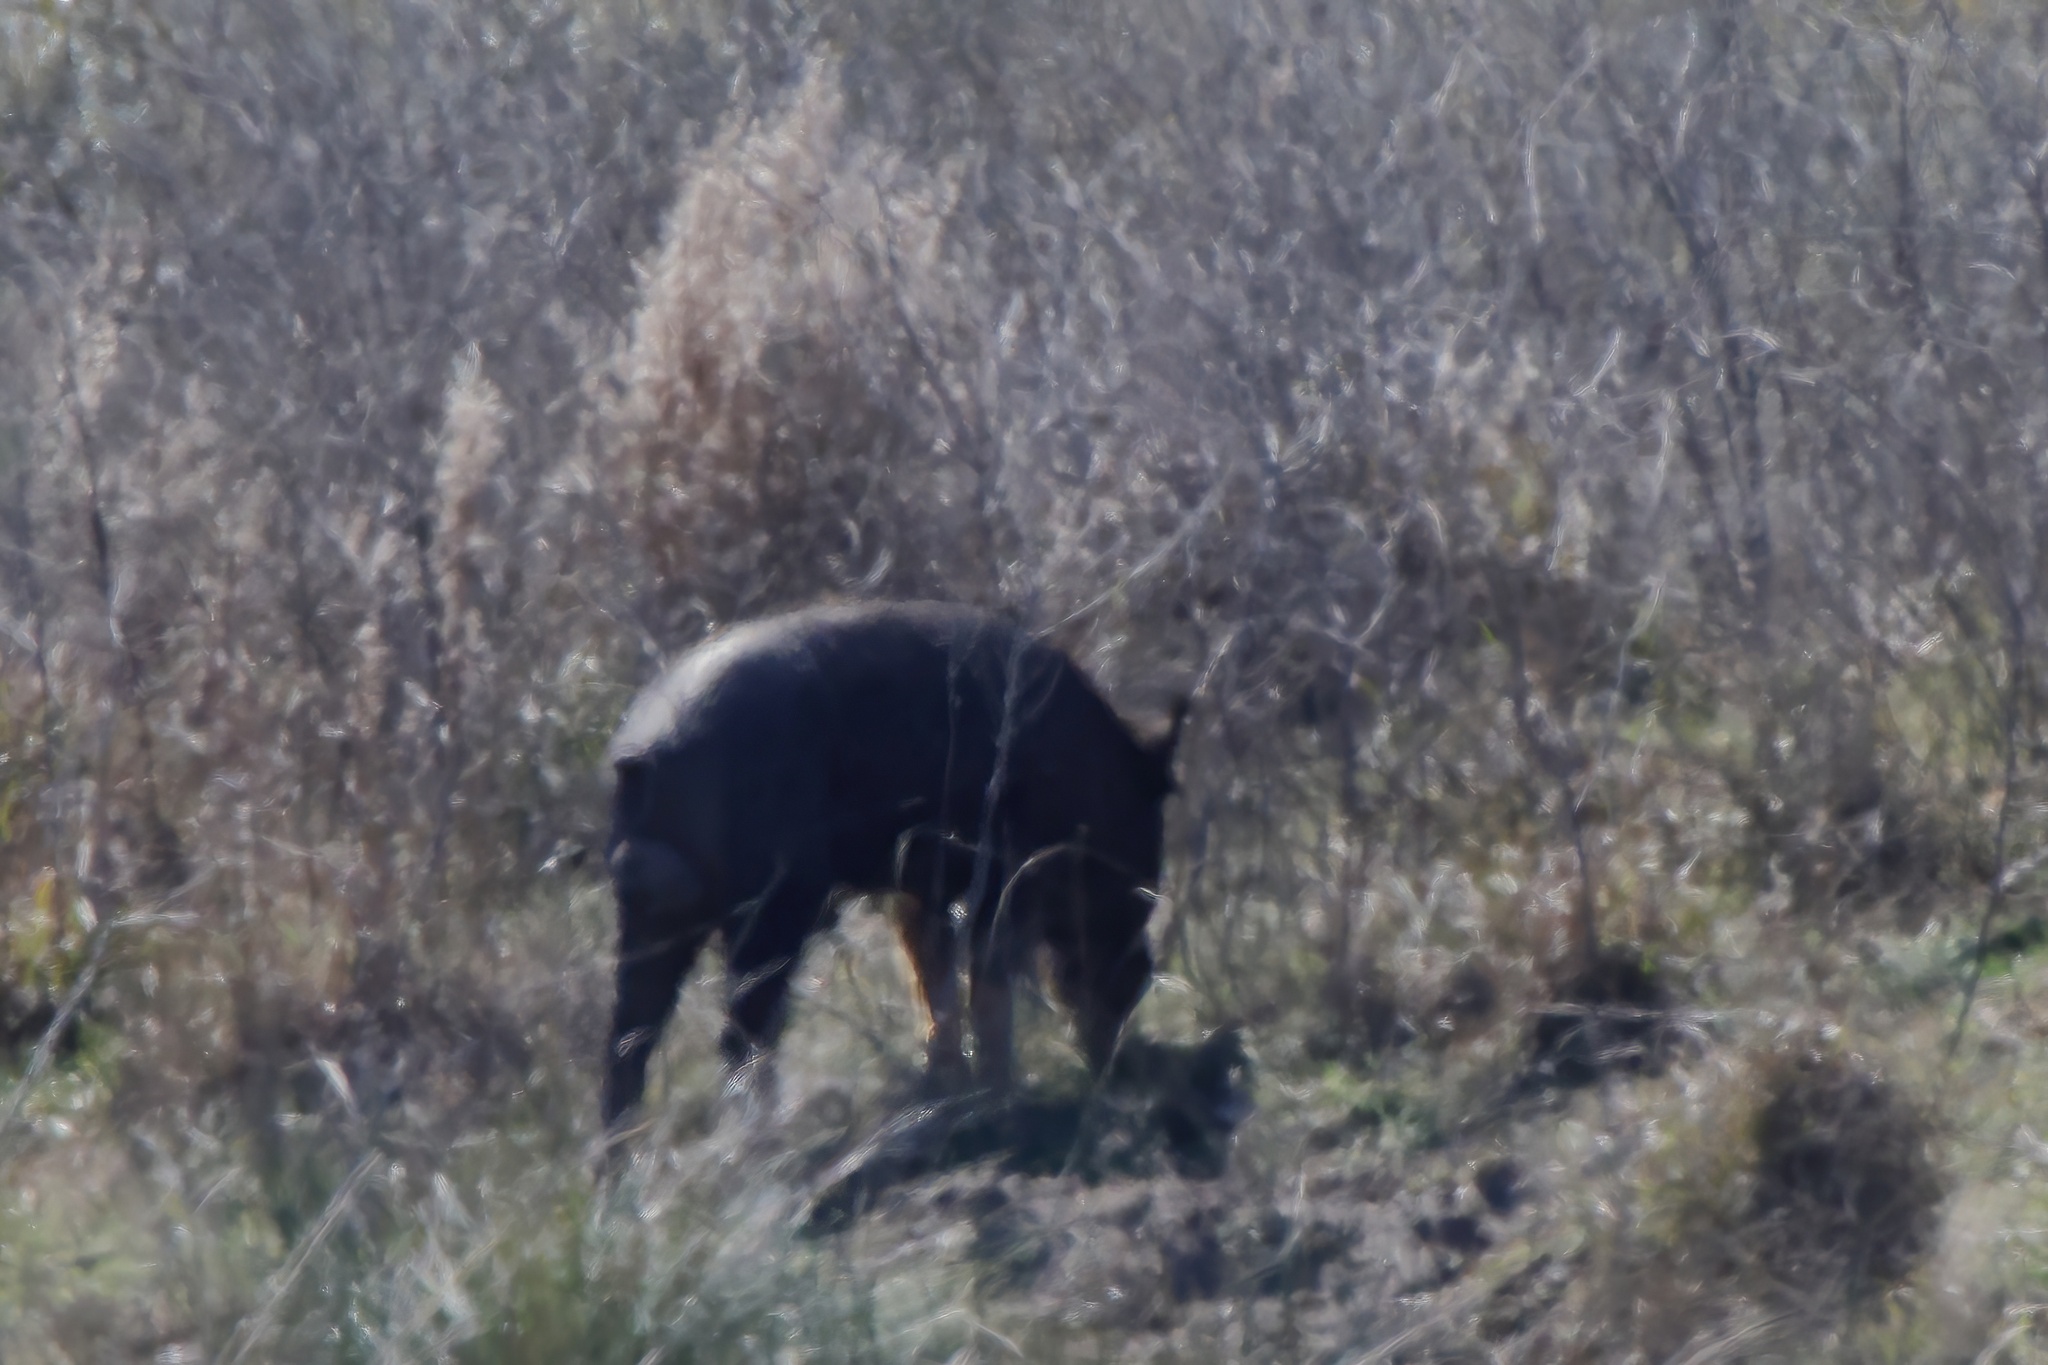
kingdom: Animalia
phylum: Chordata
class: Mammalia
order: Artiodactyla
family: Suidae
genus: Sus
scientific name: Sus scrofa
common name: Wild boar
